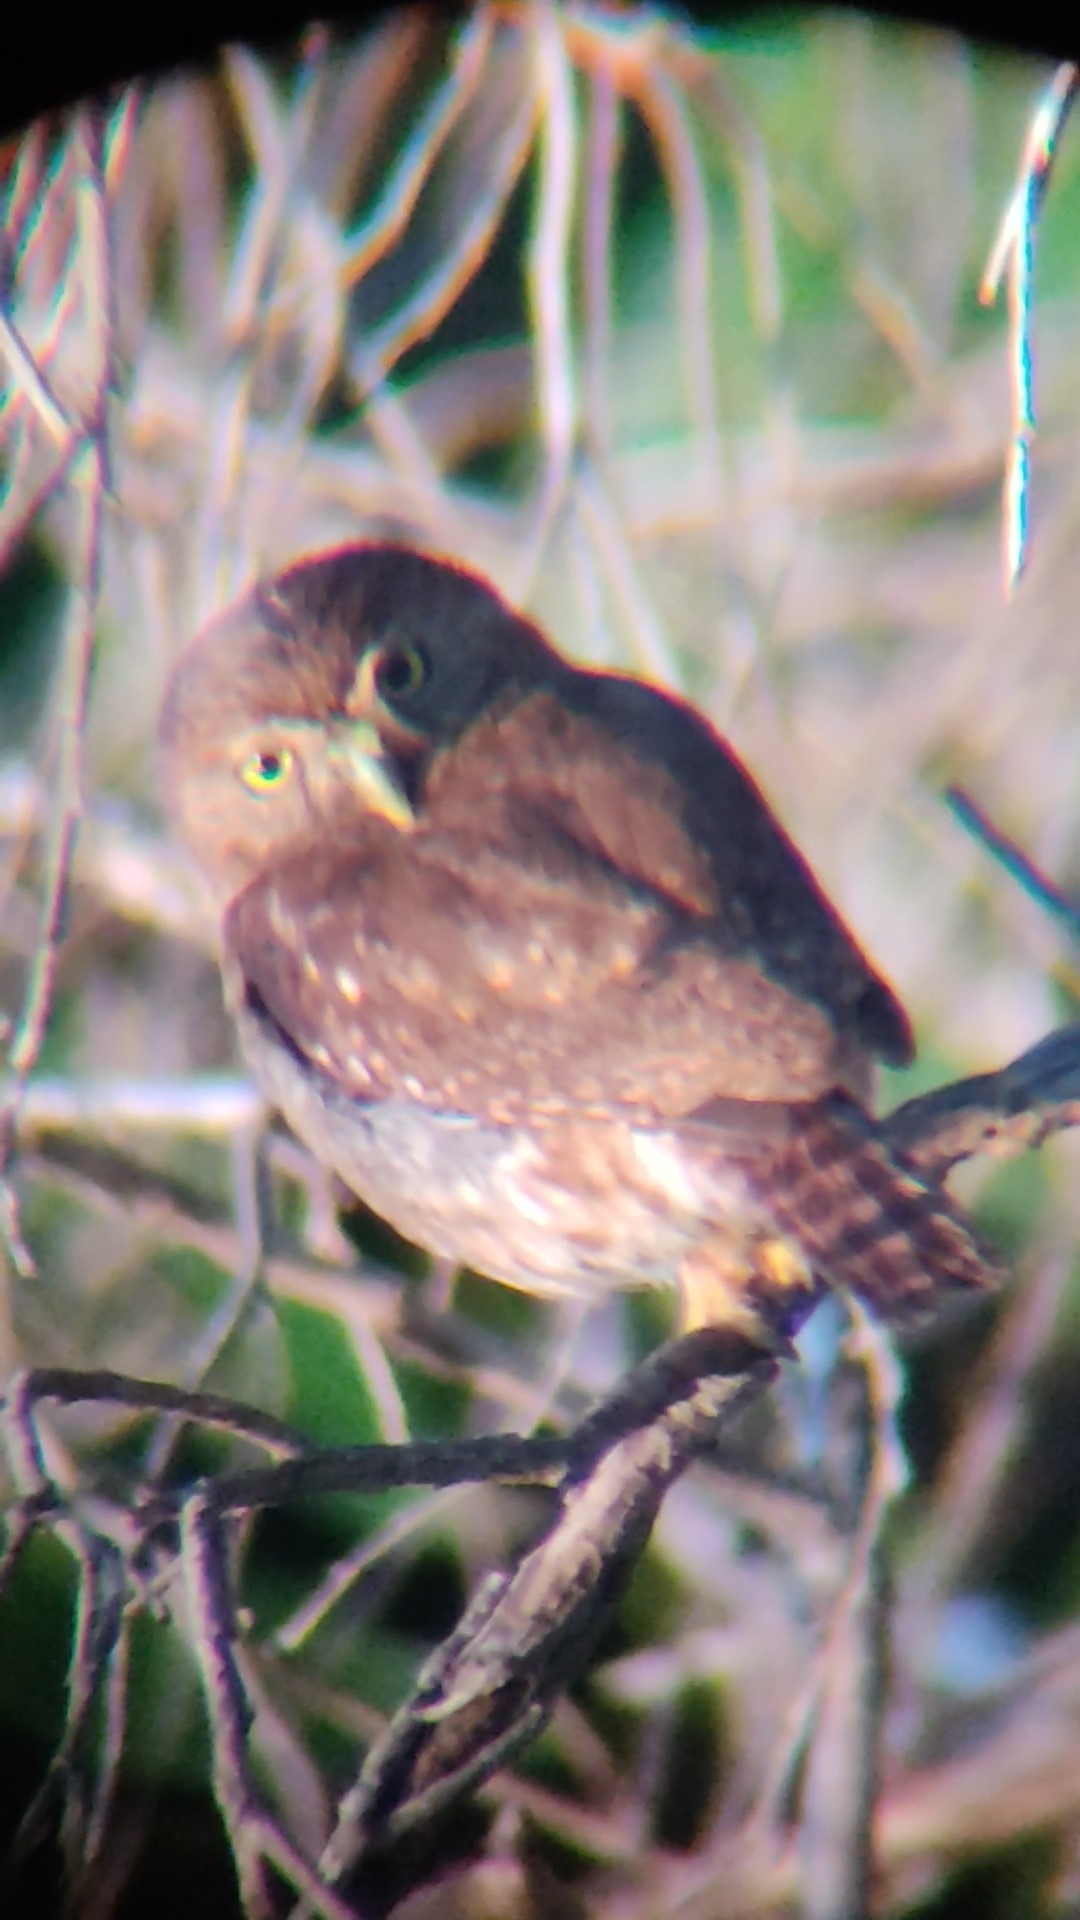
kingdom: Animalia
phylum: Chordata
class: Aves
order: Strigiformes
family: Strigidae
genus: Glaucidium
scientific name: Glaucidium brasilianum
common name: Ferruginous pygmy-owl
